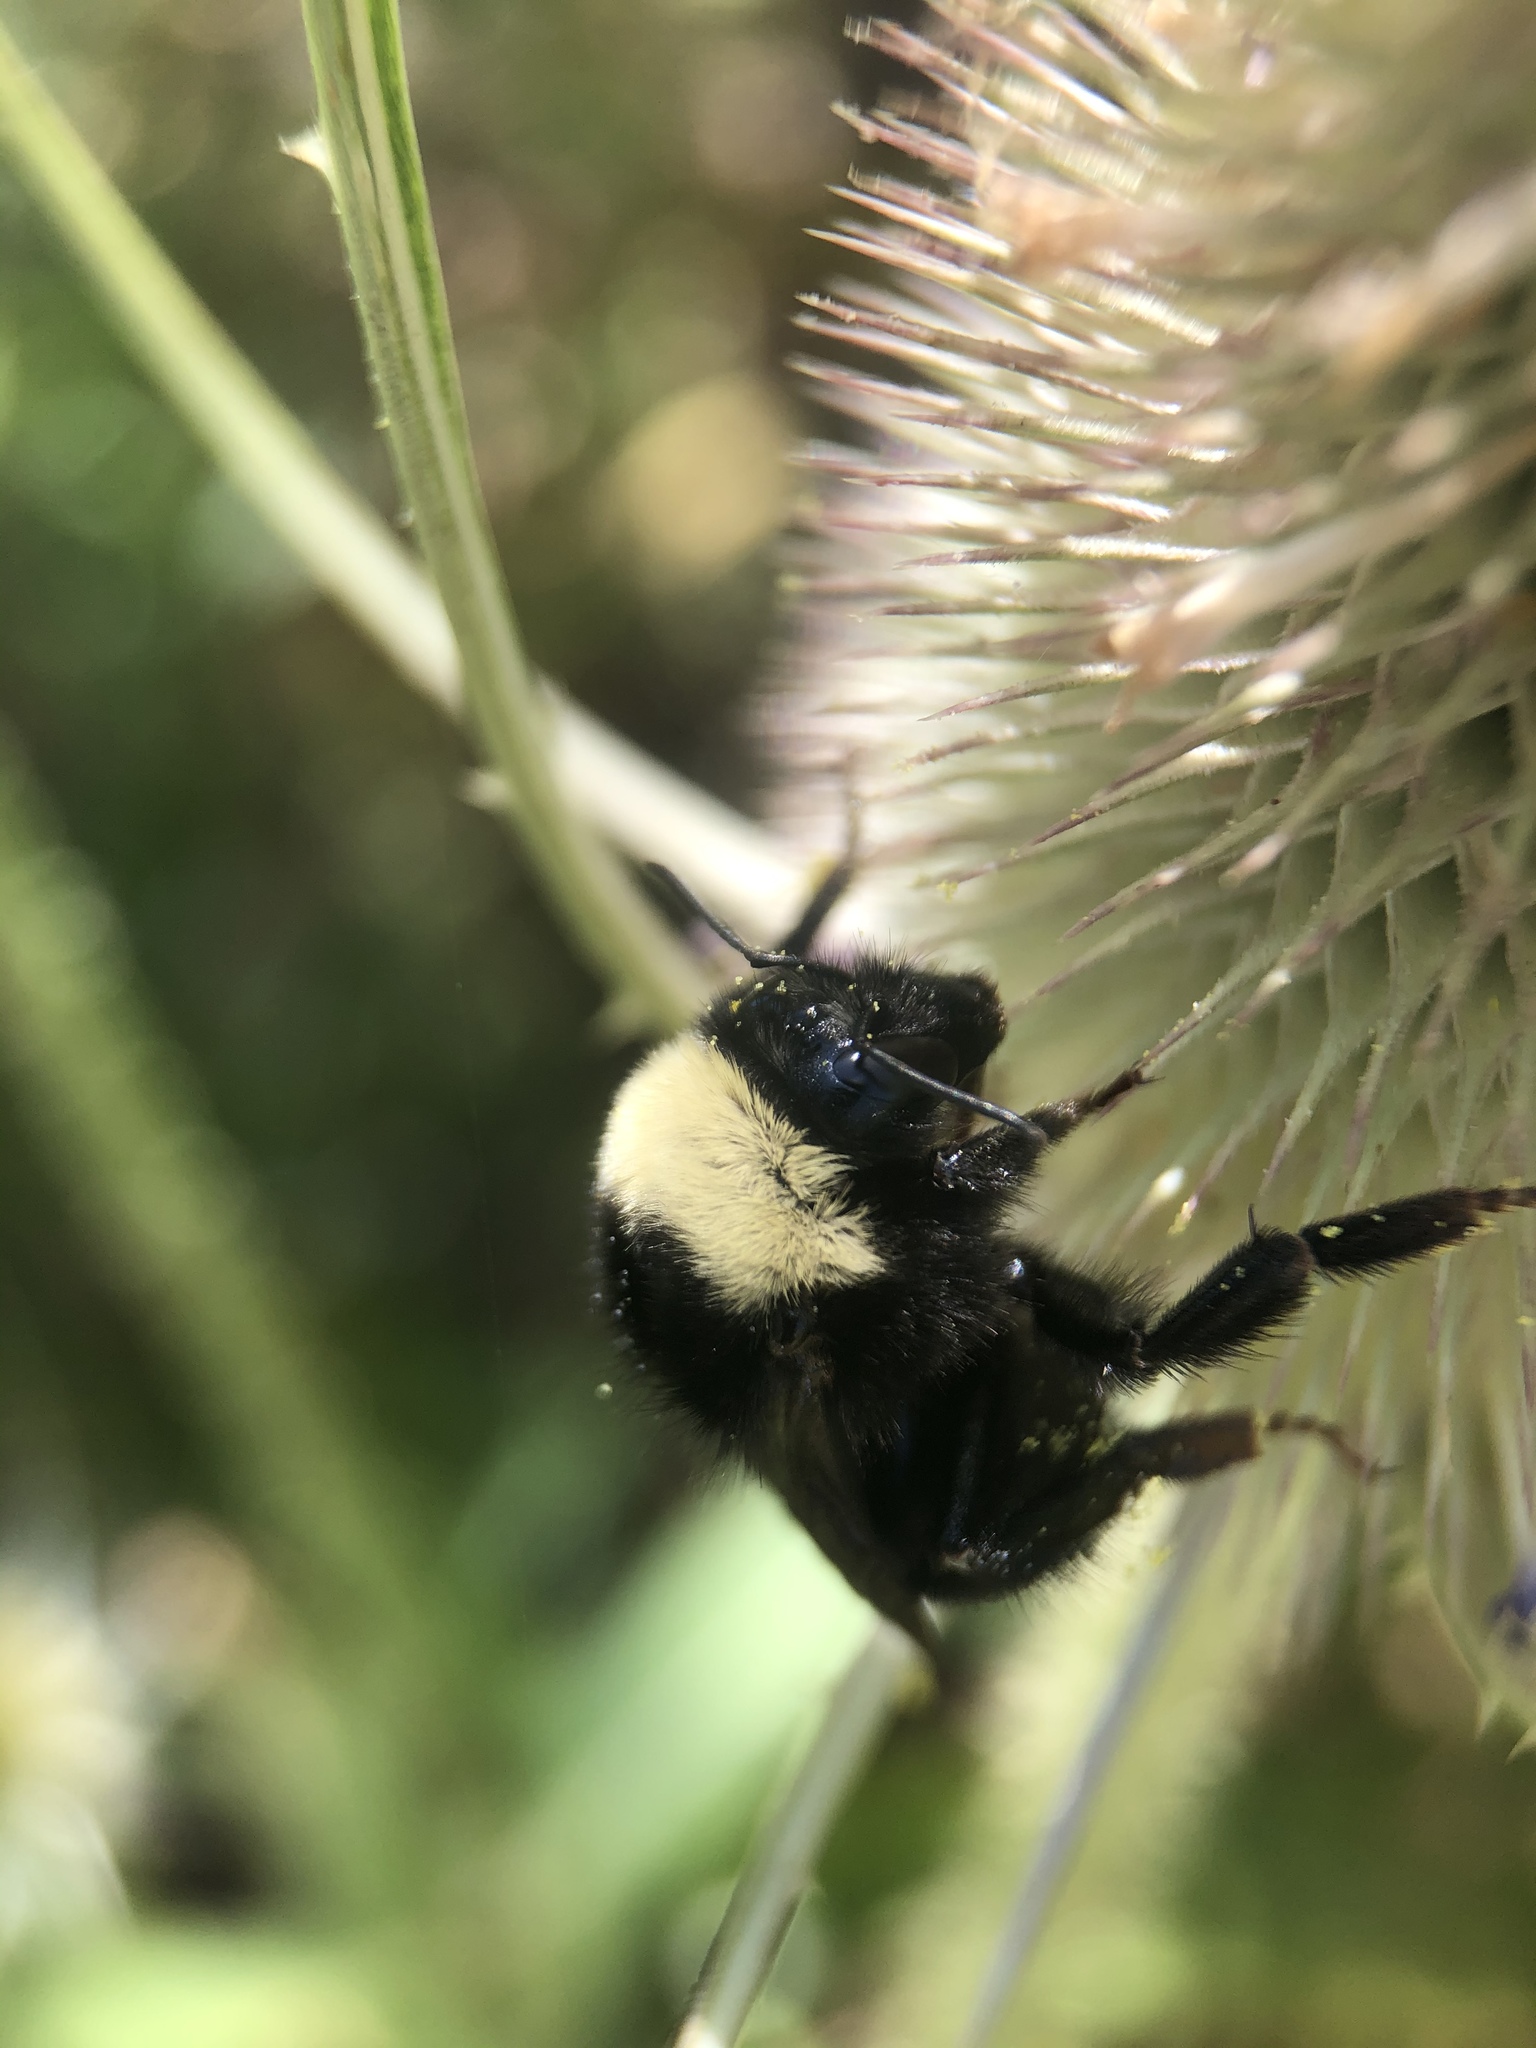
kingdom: Animalia
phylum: Arthropoda
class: Insecta
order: Hymenoptera
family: Apidae
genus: Bombus
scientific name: Bombus californicus
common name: California bumble bee
